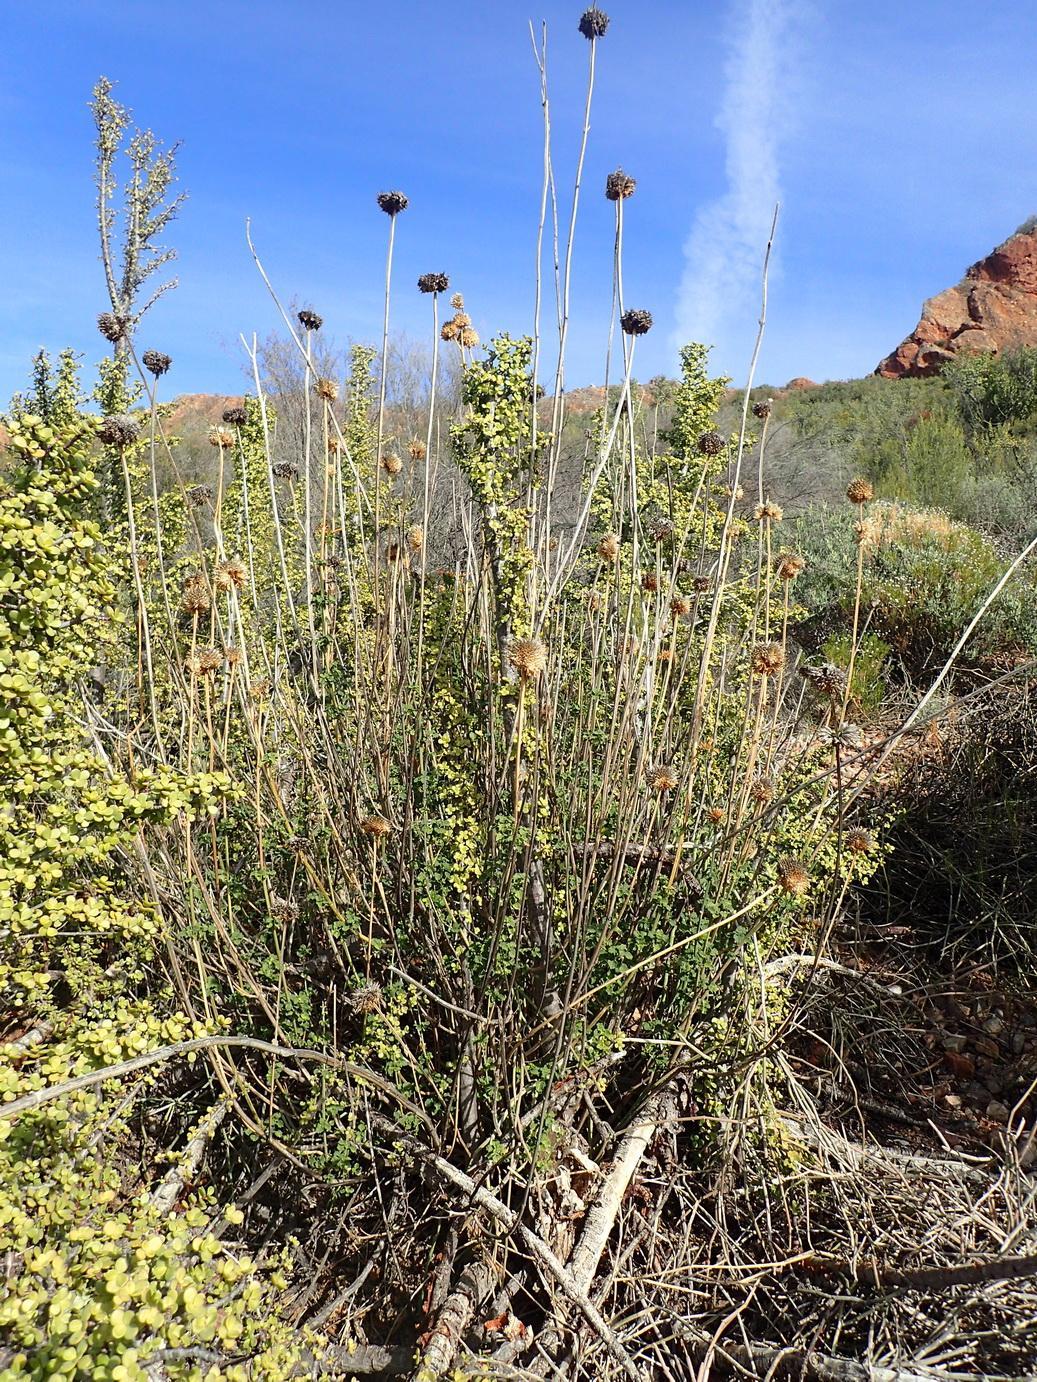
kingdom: Plantae
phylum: Tracheophyta
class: Magnoliopsida
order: Lamiales
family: Lamiaceae
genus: Leonotis
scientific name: Leonotis ocymifolia
